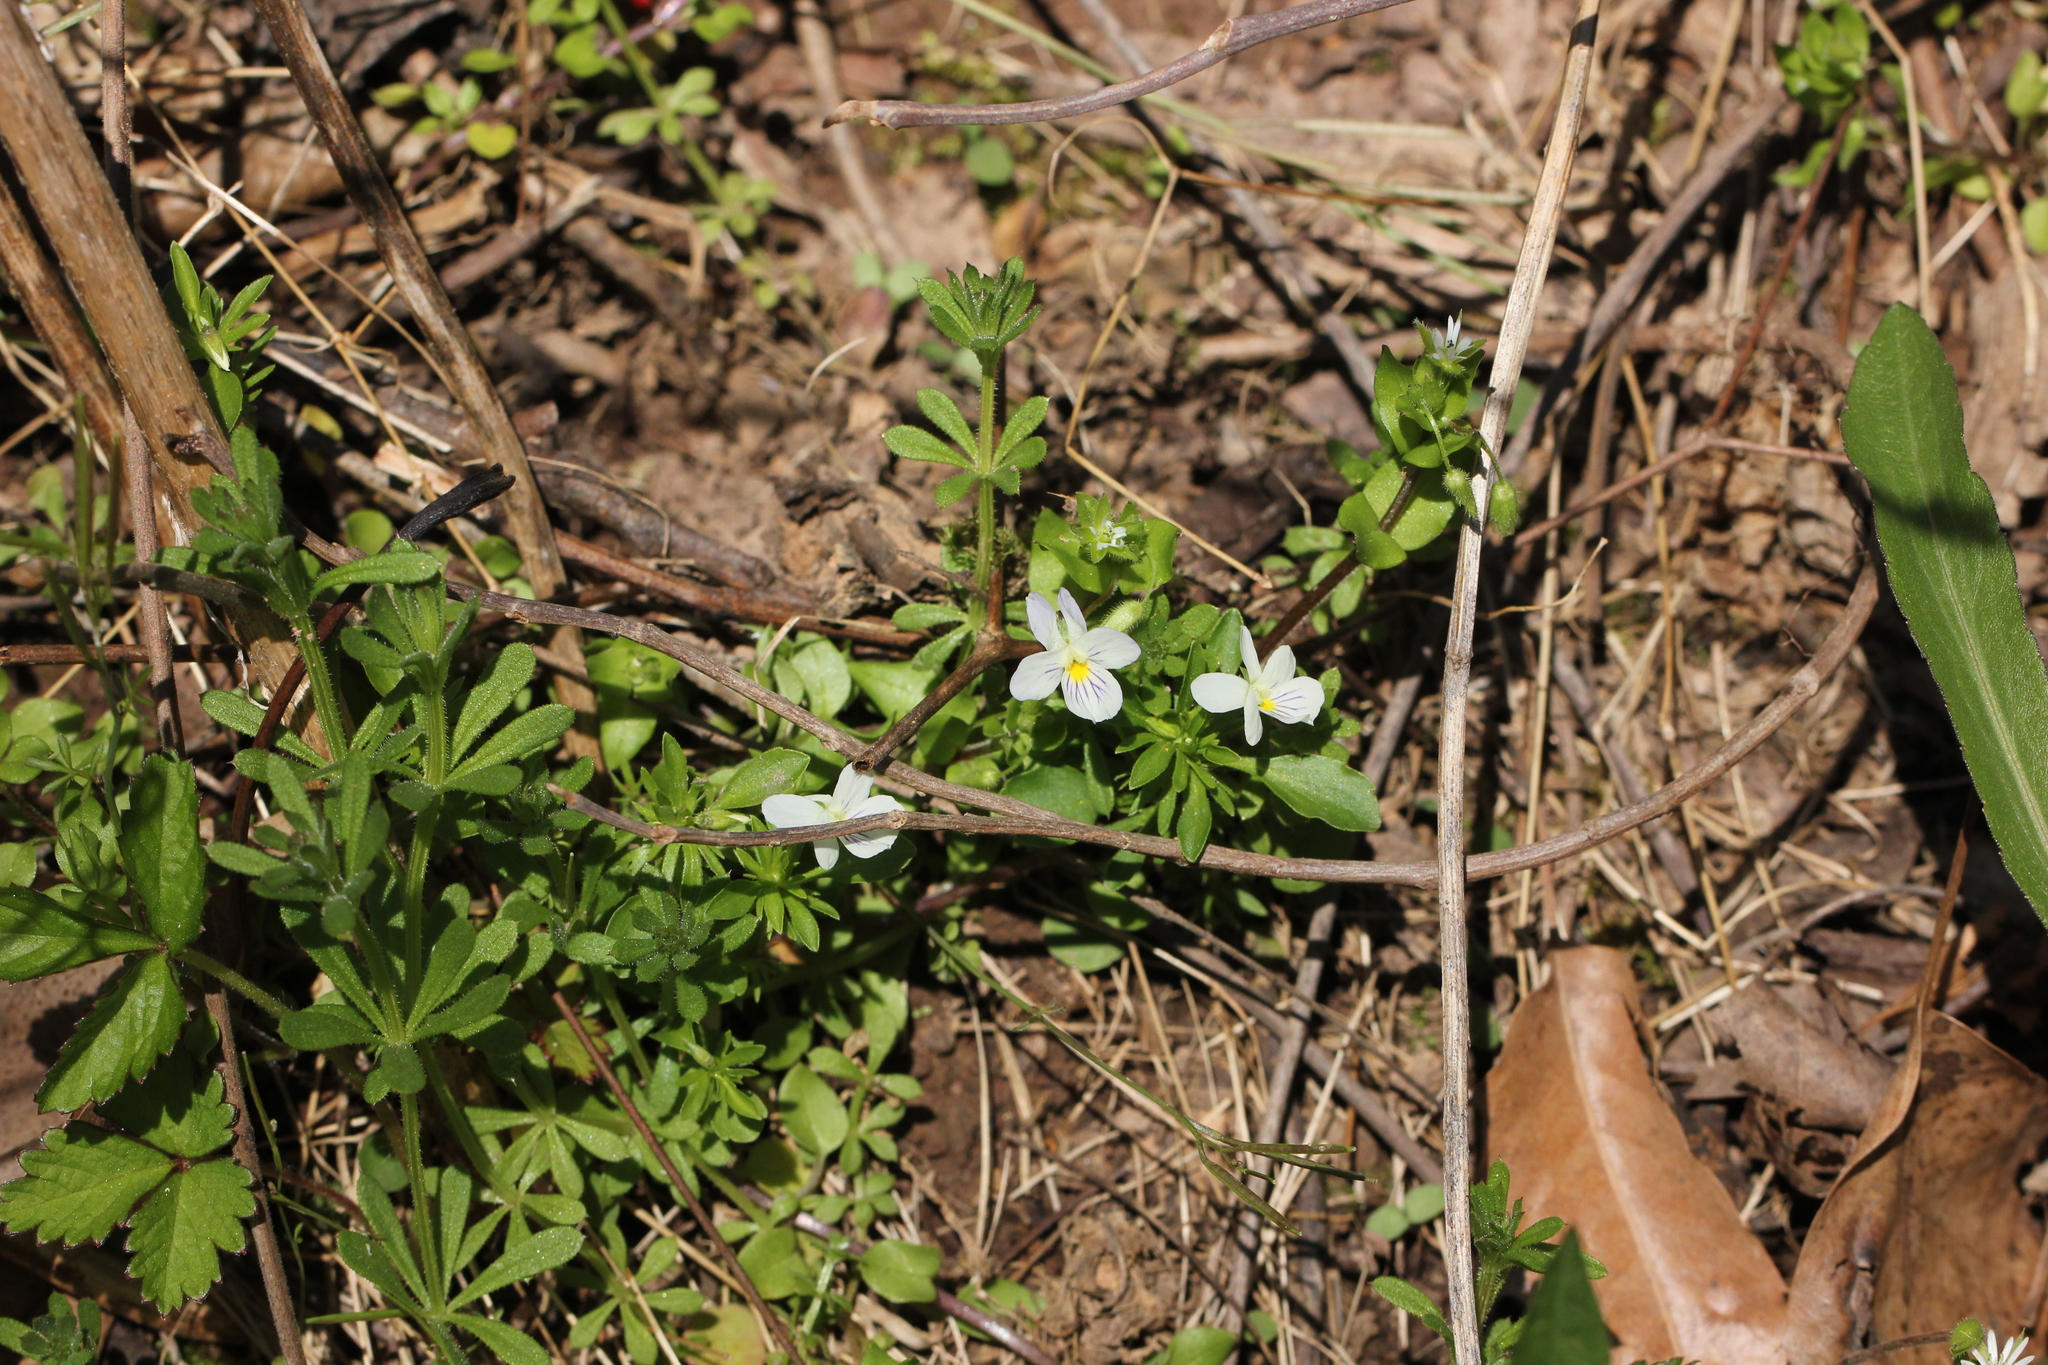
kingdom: Plantae
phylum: Tracheophyta
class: Magnoliopsida
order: Malpighiales
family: Violaceae
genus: Viola
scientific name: Viola rafinesquei
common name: American field pansy
